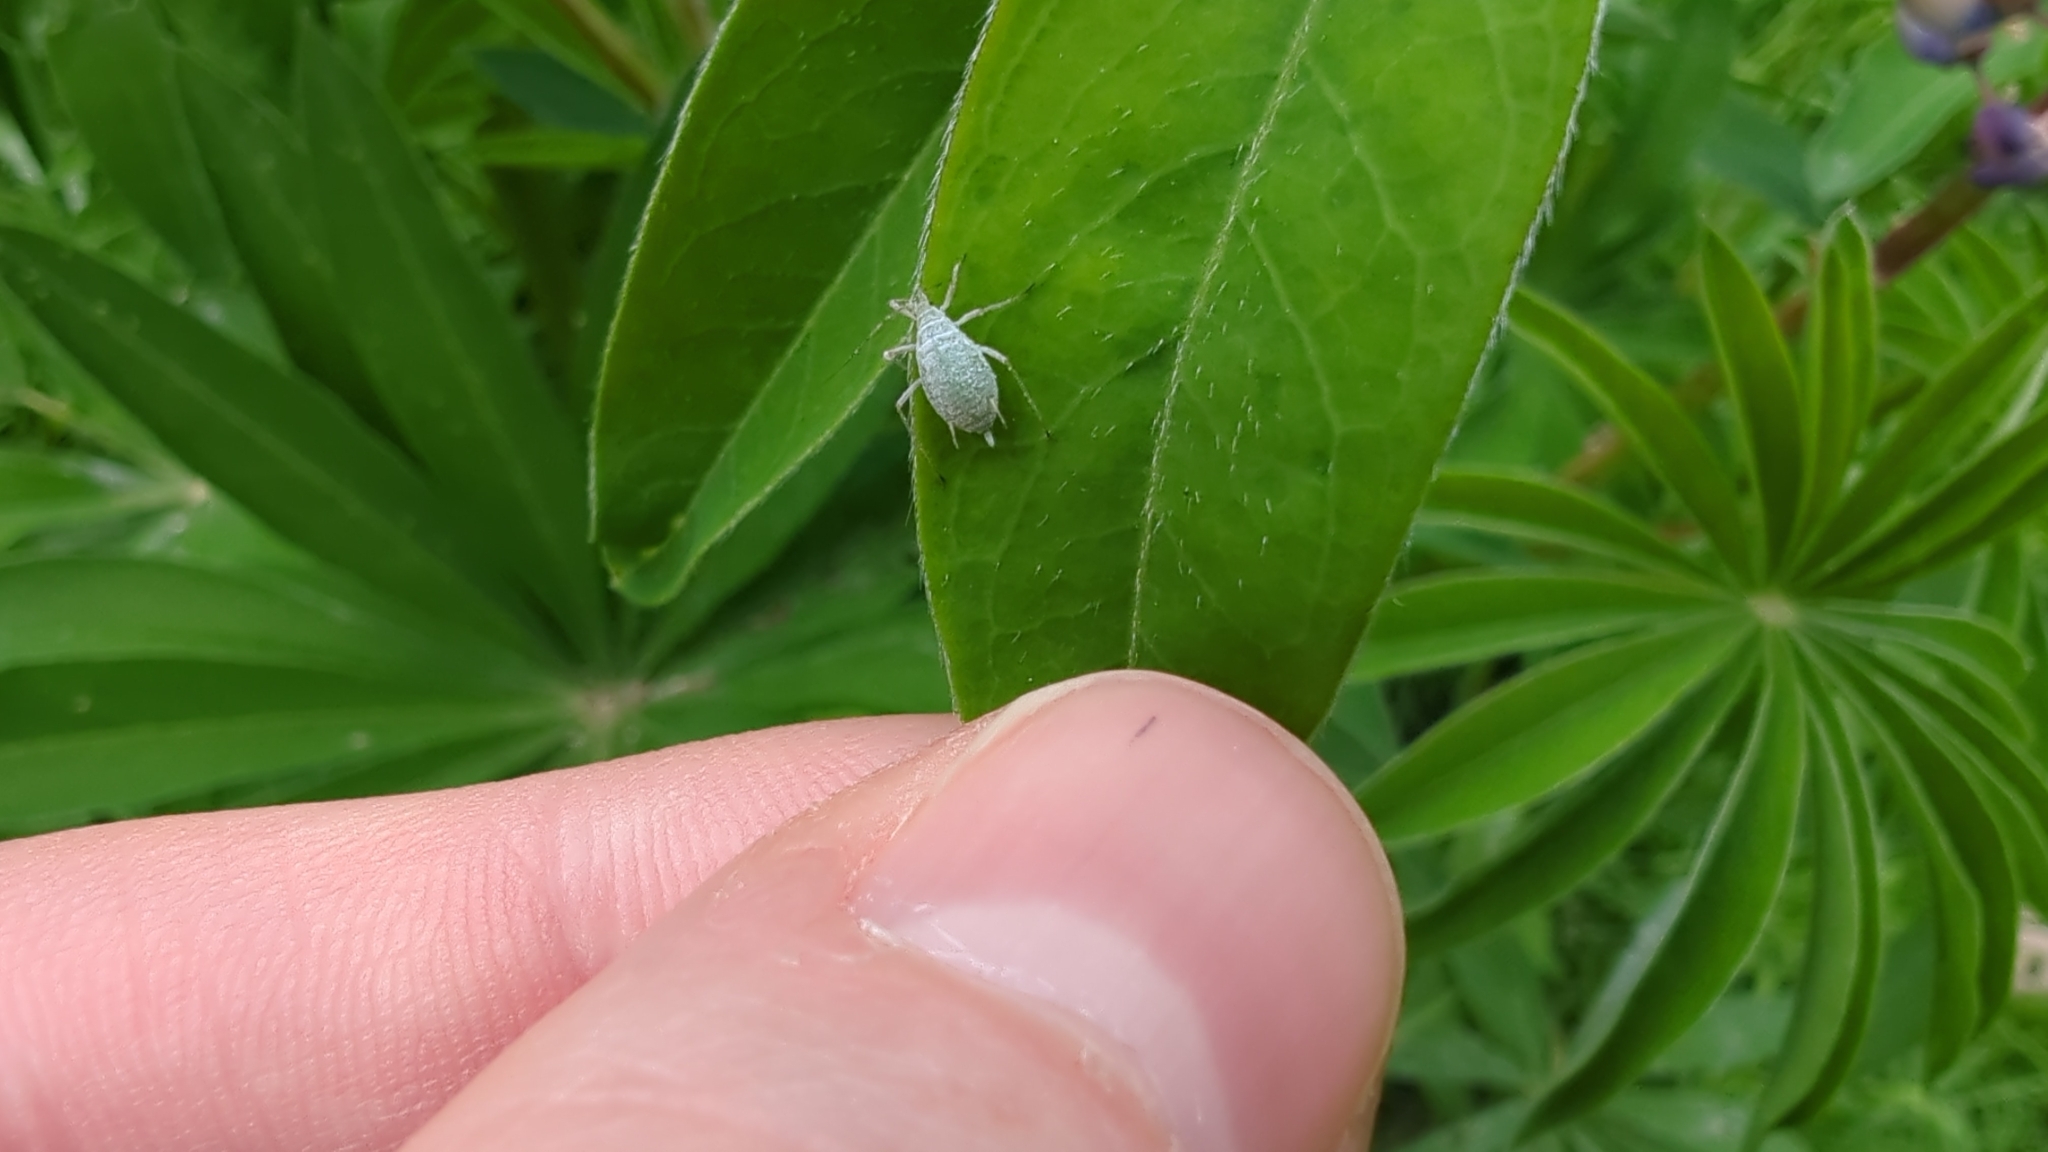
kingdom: Animalia
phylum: Arthropoda
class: Insecta
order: Hemiptera
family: Aphididae
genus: Macrosiphum
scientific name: Macrosiphum albifrons
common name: Lupine aphid
